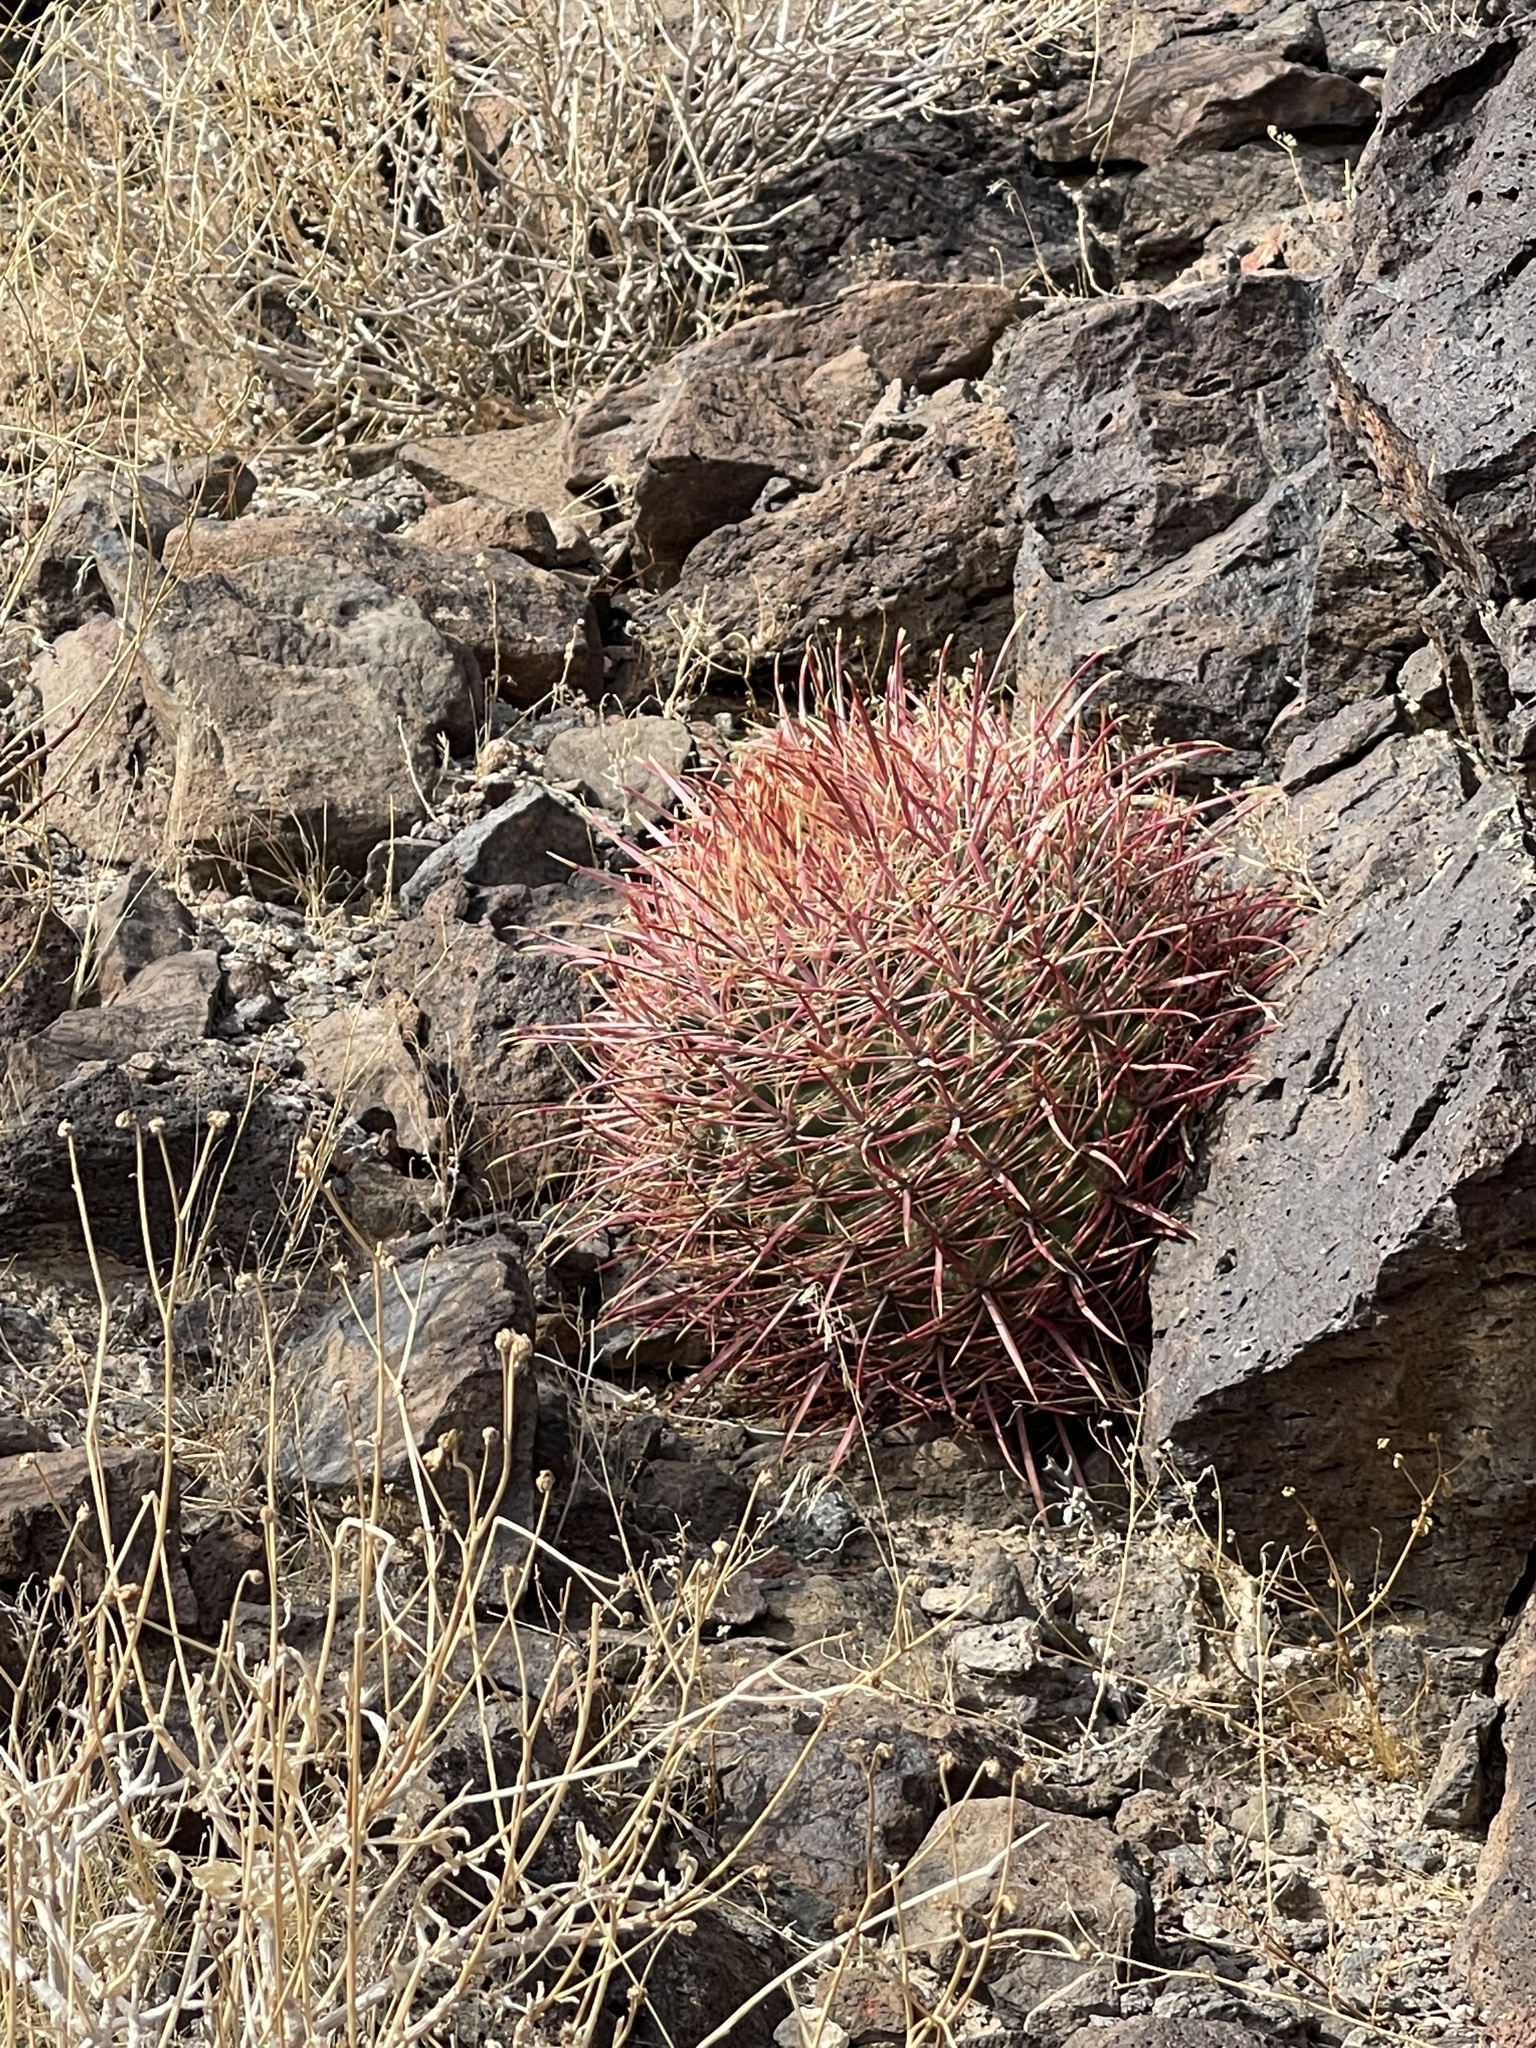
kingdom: Plantae
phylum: Tracheophyta
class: Magnoliopsida
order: Caryophyllales
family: Cactaceae
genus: Ferocactus
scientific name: Ferocactus cylindraceus
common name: California barrel cactus
